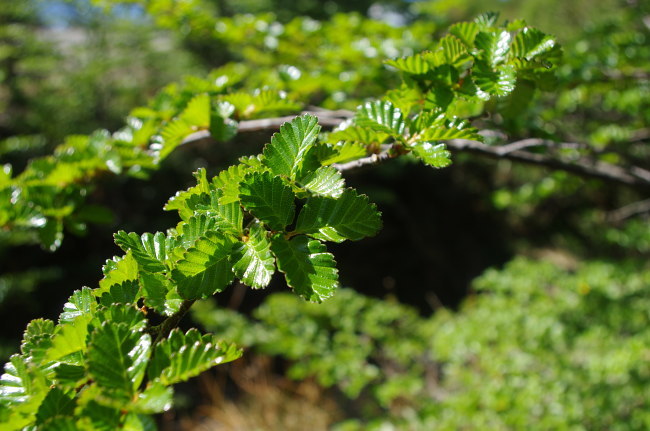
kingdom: Plantae
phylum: Tracheophyta
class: Magnoliopsida
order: Fagales
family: Nothofagaceae
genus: Nothofagus
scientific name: Nothofagus pumilio
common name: Lenga beech
